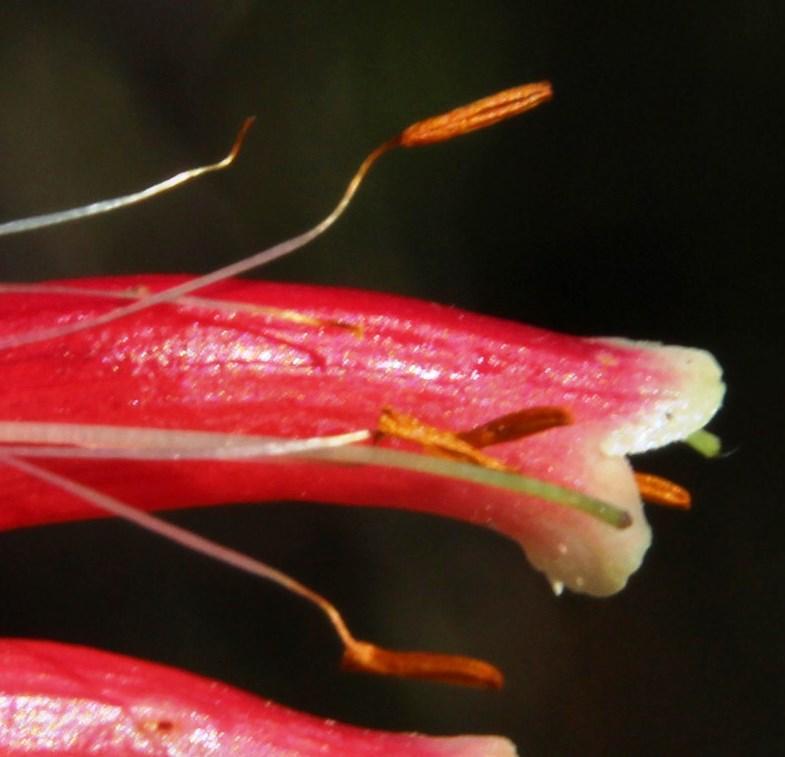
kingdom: Plantae
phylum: Tracheophyta
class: Magnoliopsida
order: Ericales
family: Ericaceae
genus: Erica
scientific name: Erica versicolor
